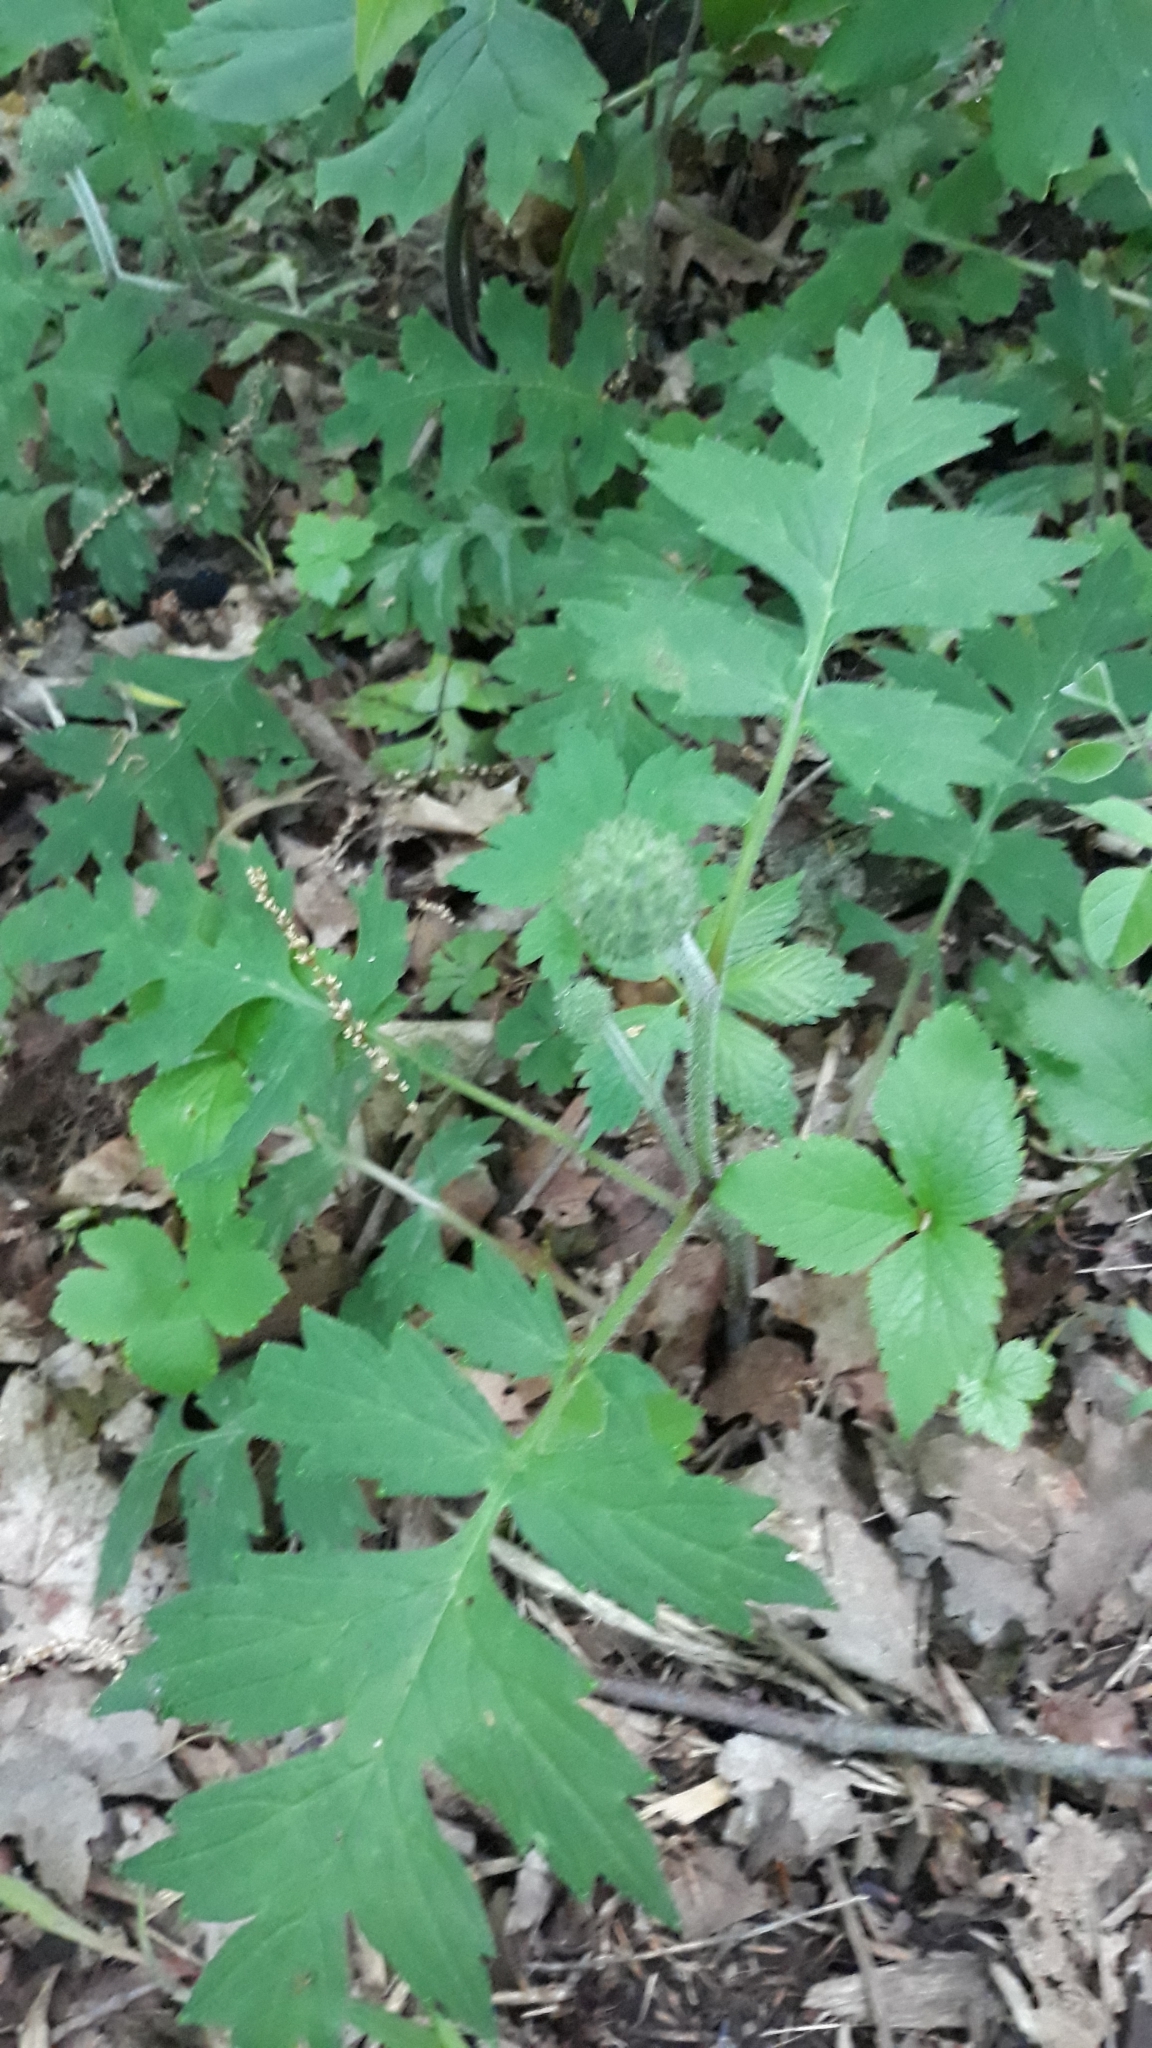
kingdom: Plantae
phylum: Tracheophyta
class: Magnoliopsida
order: Boraginales
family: Hydrophyllaceae
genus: Hydrophyllum
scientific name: Hydrophyllum macrophyllum
